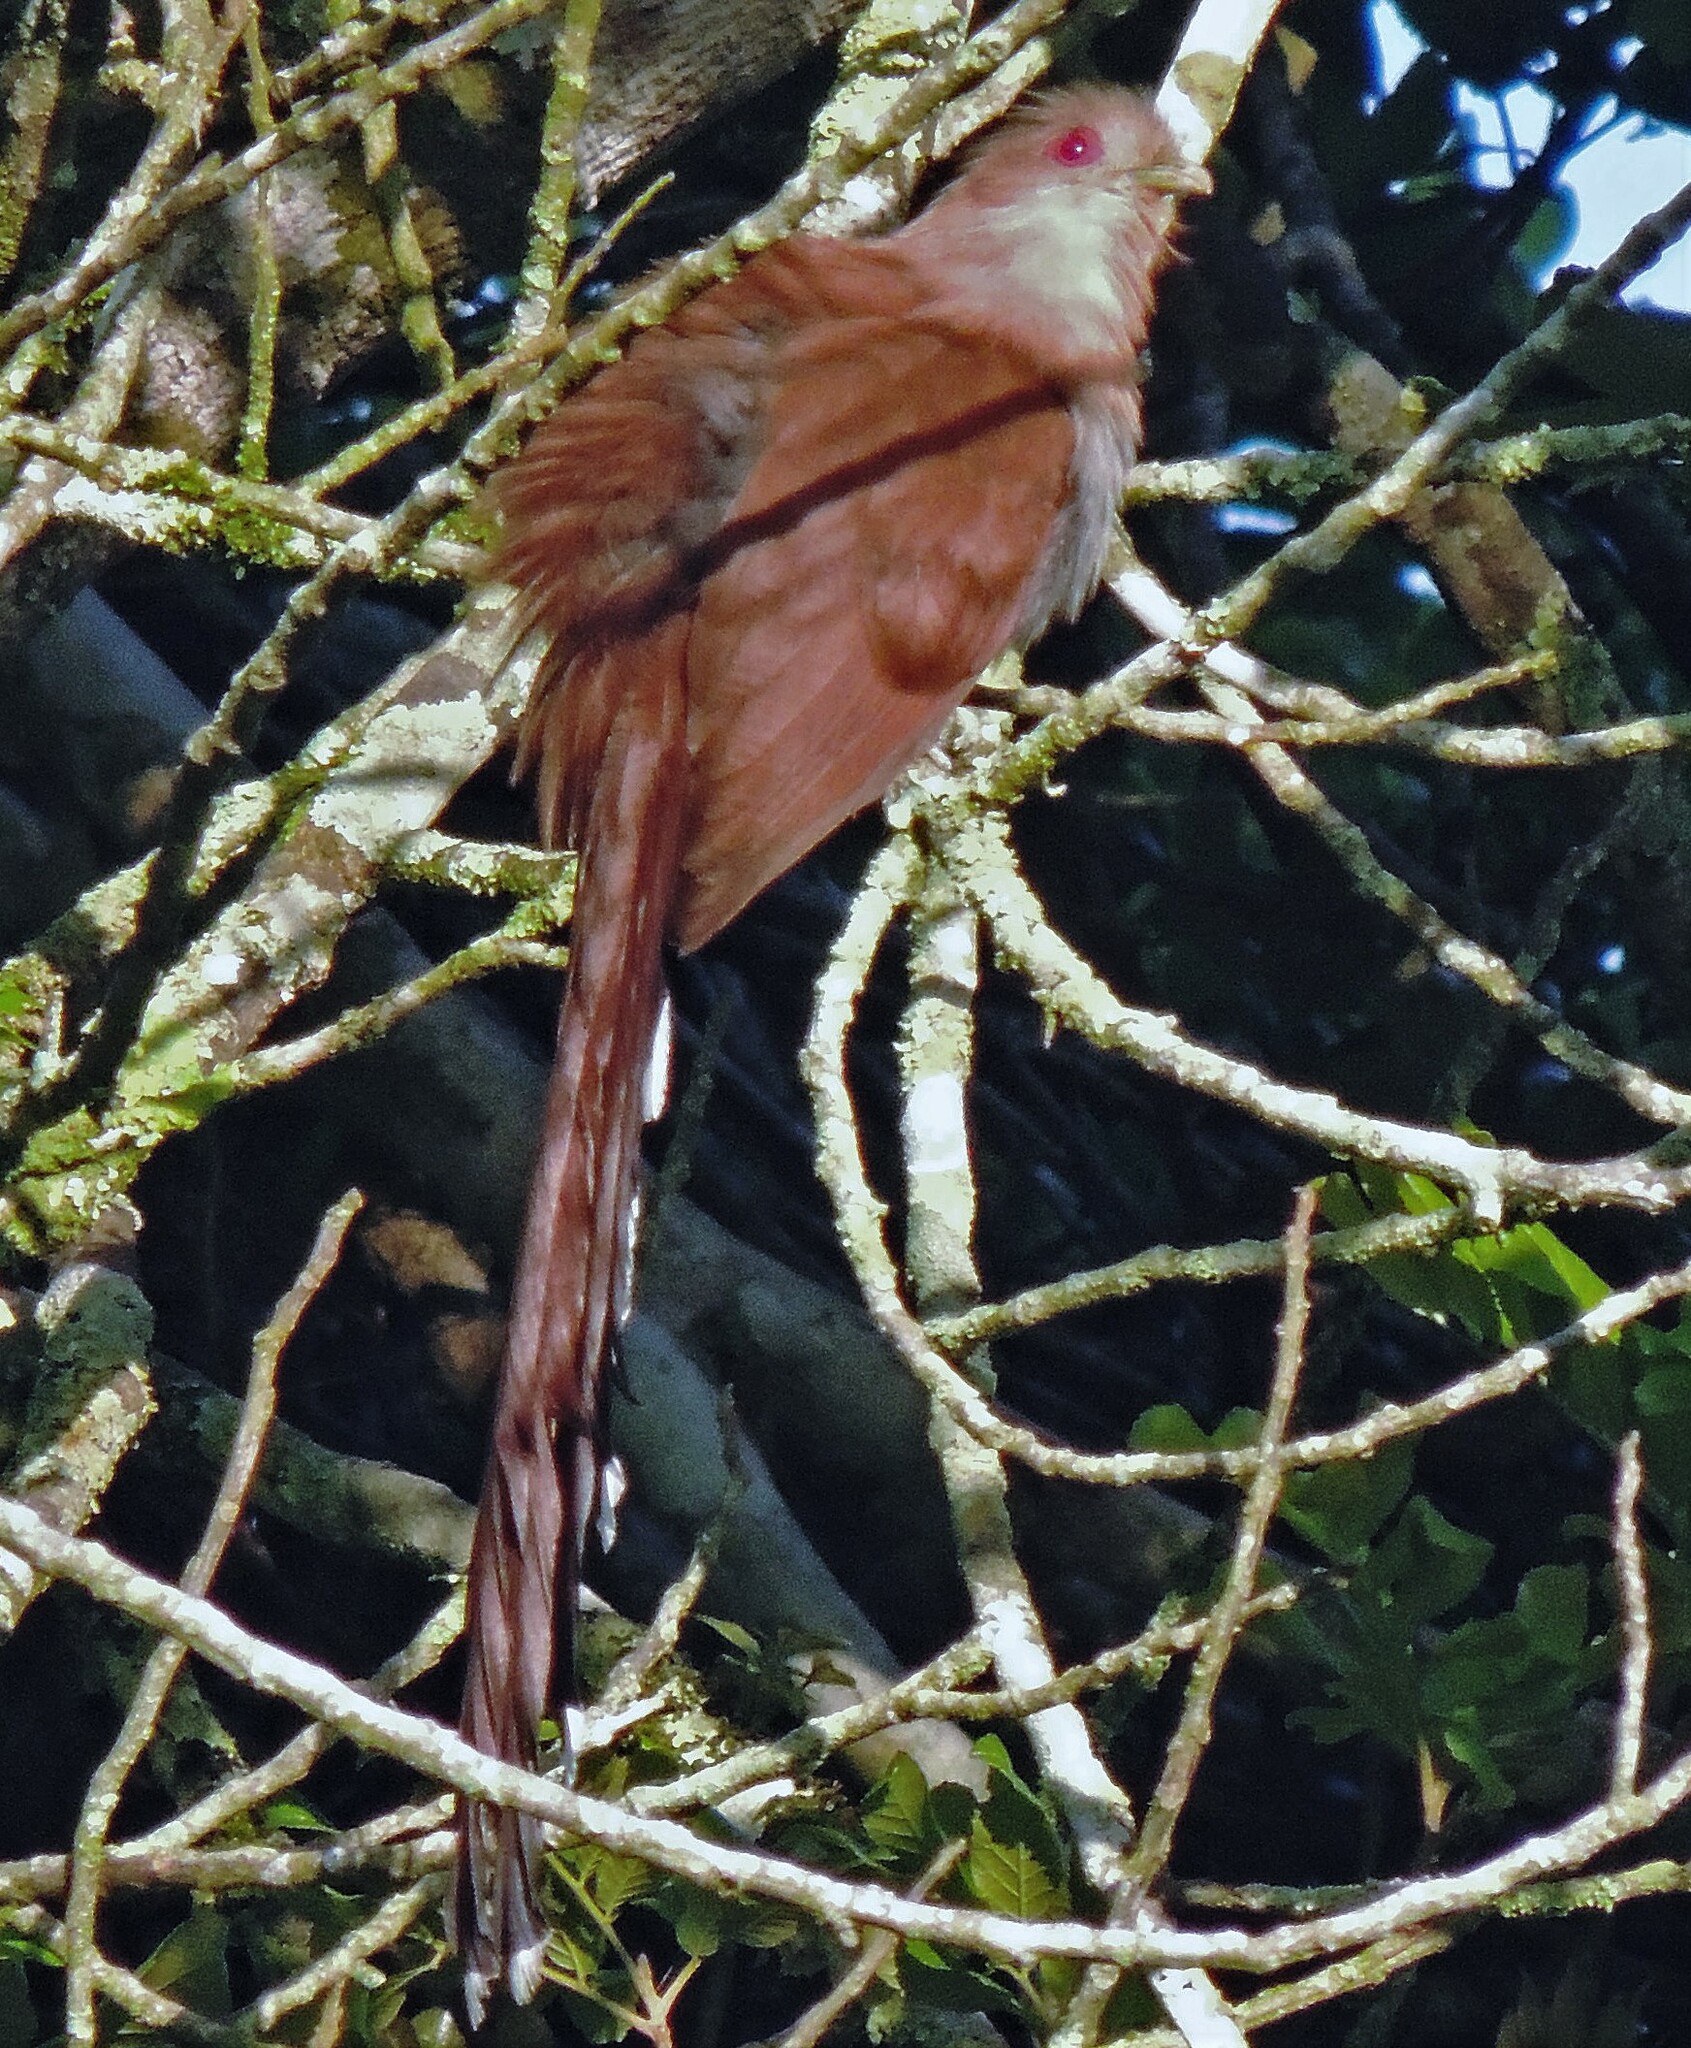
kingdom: Animalia
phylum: Chordata
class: Aves
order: Cuculiformes
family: Cuculidae
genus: Piaya
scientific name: Piaya cayana
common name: Squirrel cuckoo
